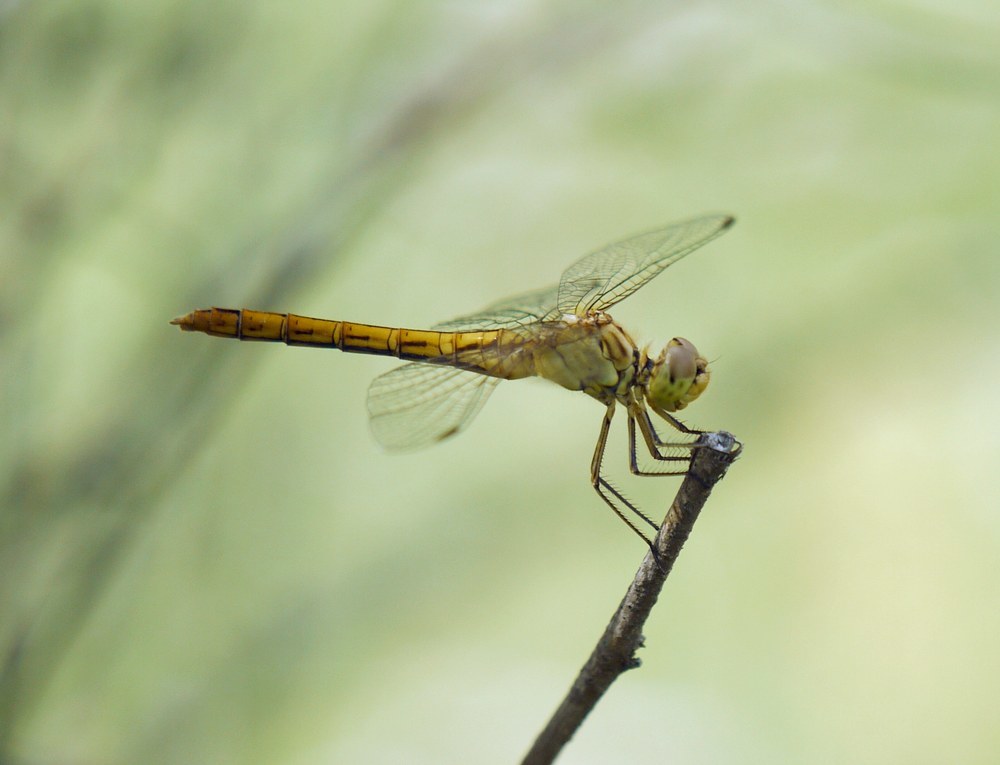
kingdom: Animalia
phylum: Arthropoda
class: Insecta
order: Odonata
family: Libellulidae
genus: Sympetrum
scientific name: Sympetrum meridionale
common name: Southern darter
